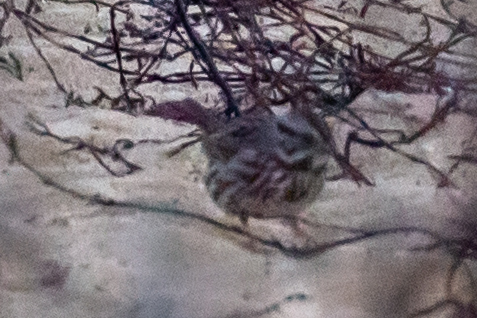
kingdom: Animalia
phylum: Chordata
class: Aves
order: Passeriformes
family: Passerellidae
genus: Melospiza
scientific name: Melospiza melodia
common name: Song sparrow
